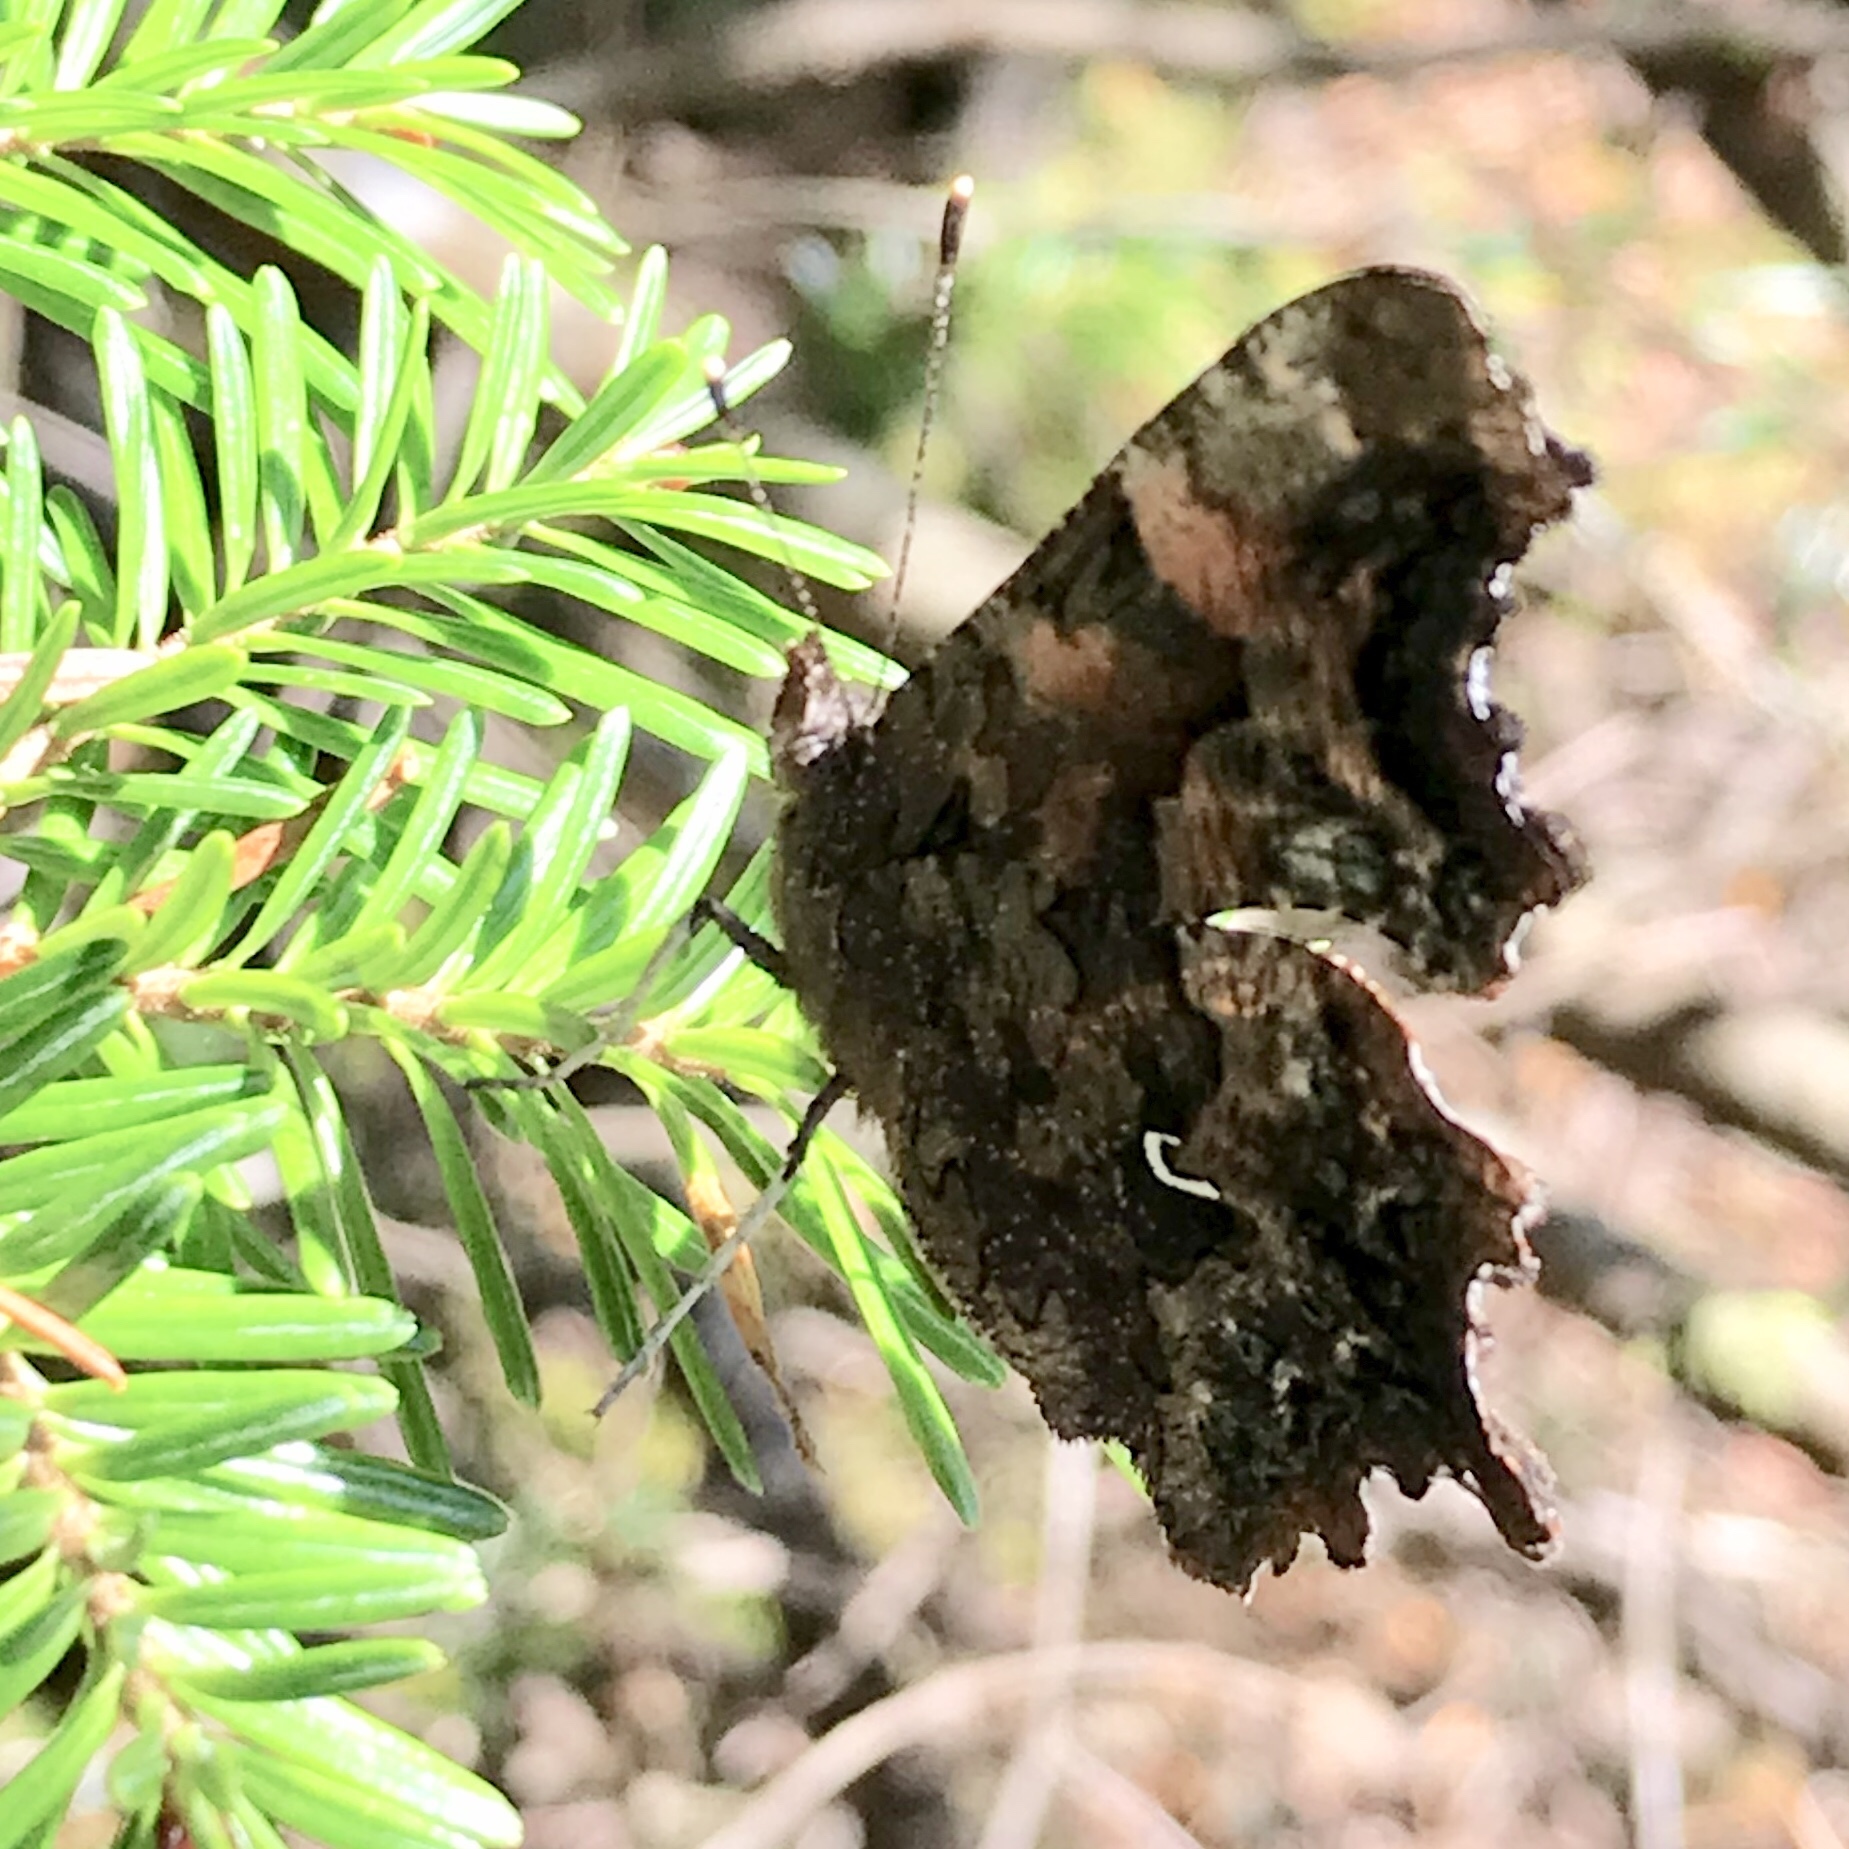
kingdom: Animalia
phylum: Arthropoda
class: Insecta
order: Lepidoptera
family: Nymphalidae
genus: Polygonia
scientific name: Polygonia faunus
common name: Green comma
